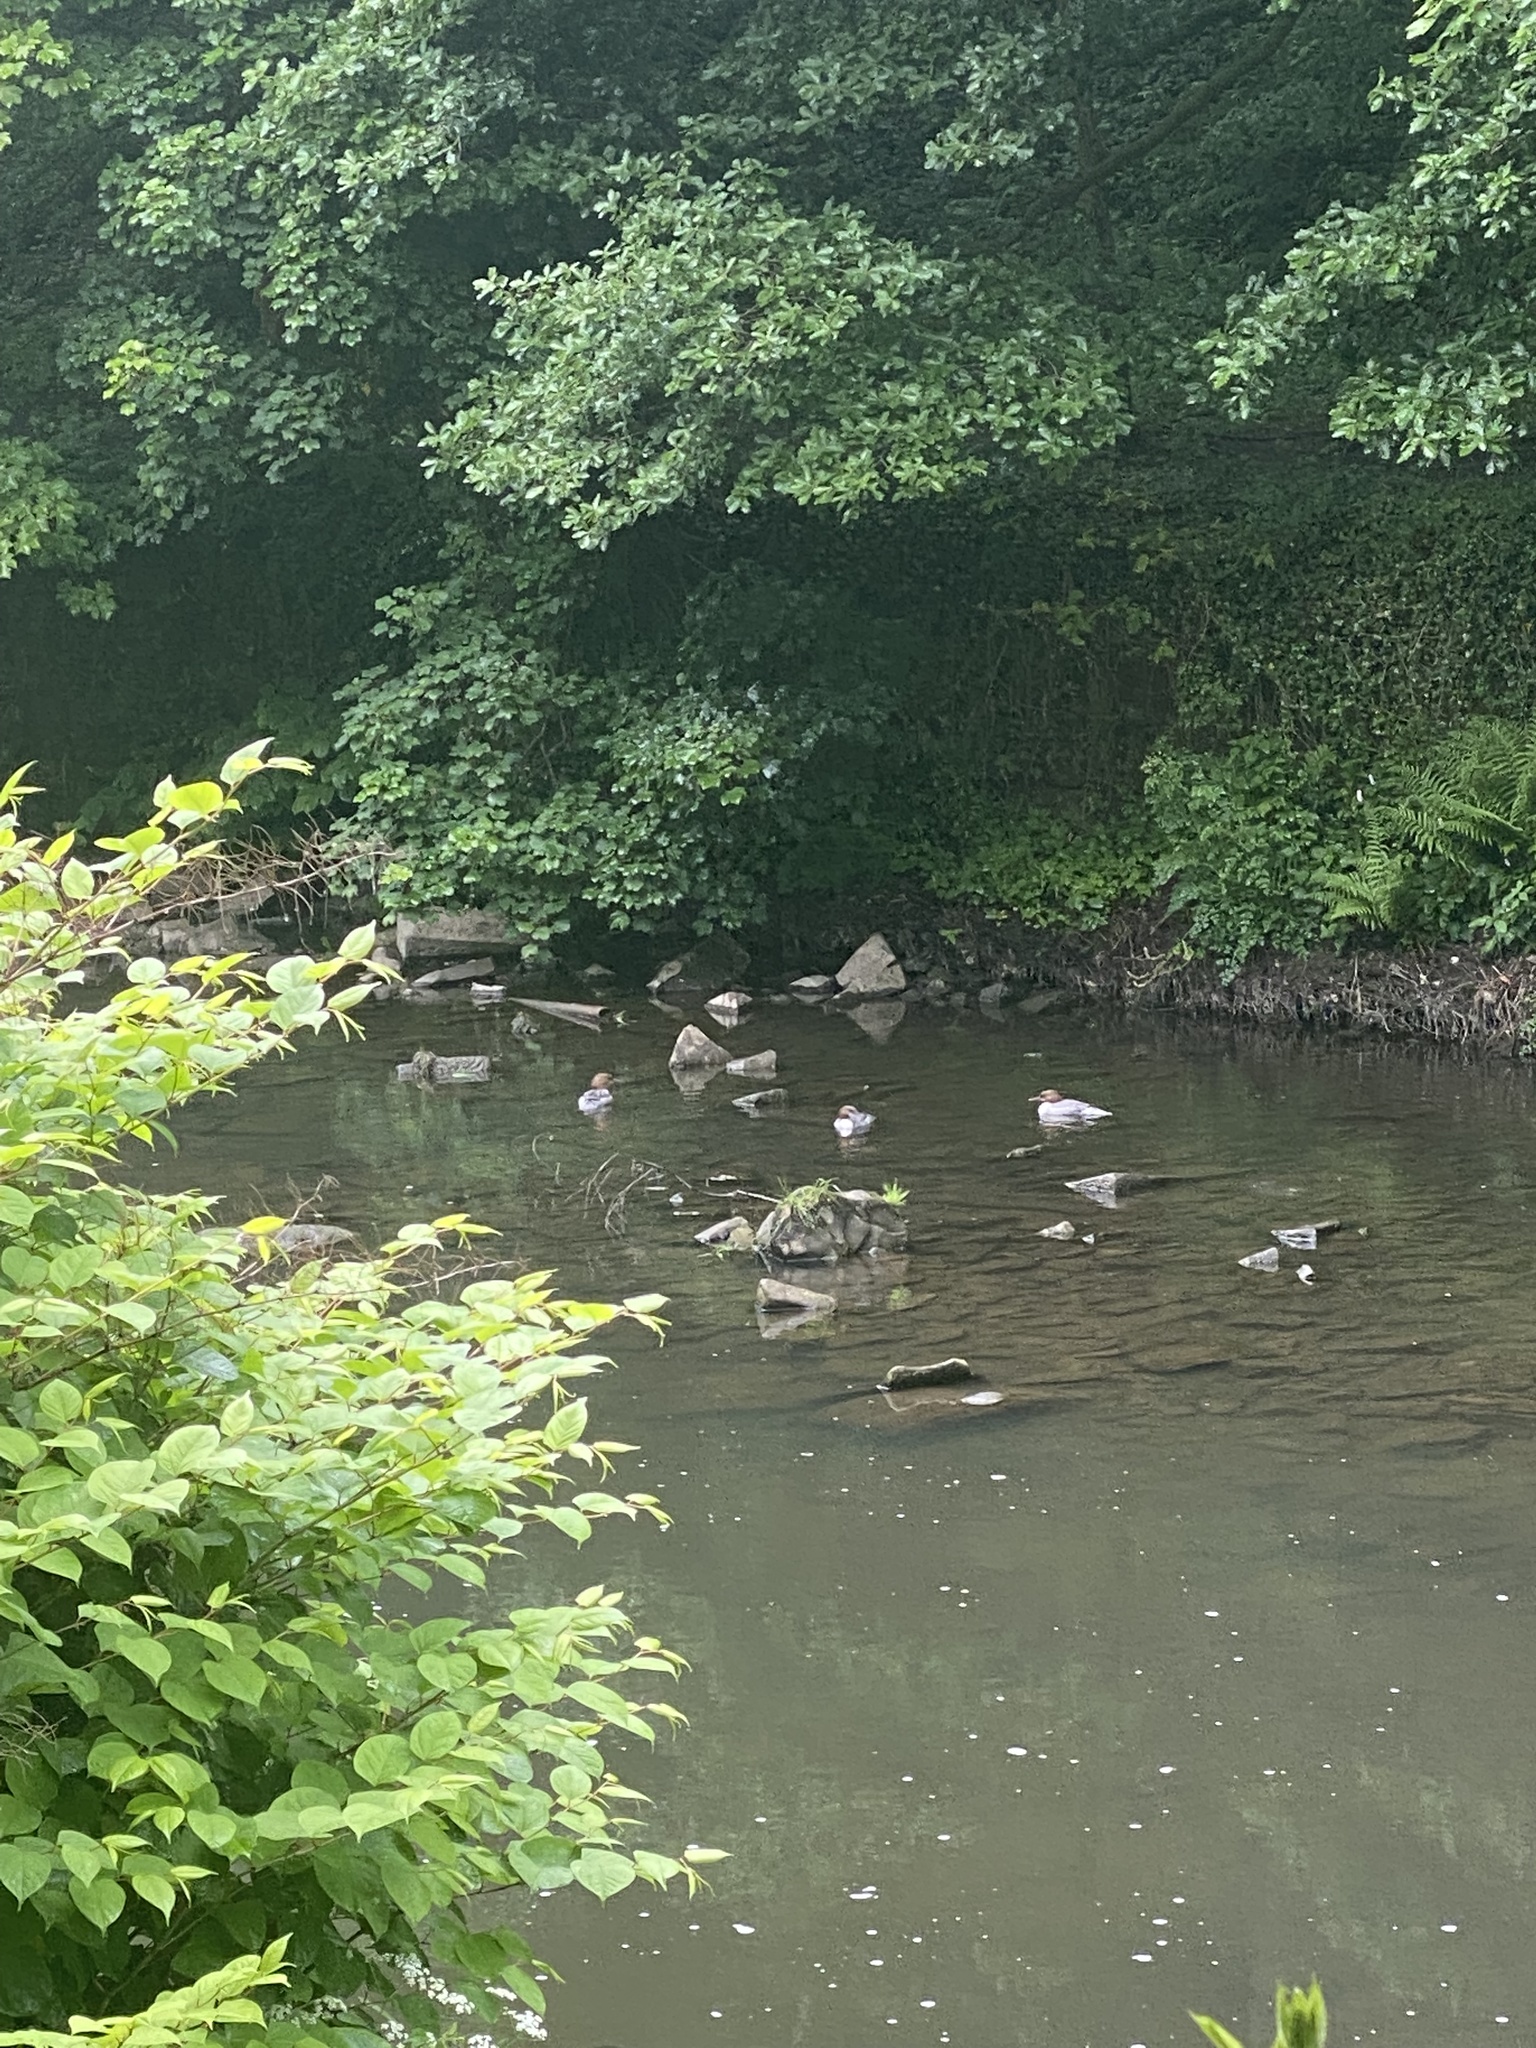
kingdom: Animalia
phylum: Chordata
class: Aves
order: Anseriformes
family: Anatidae
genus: Mergus
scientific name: Mergus merganser
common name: Common merganser
